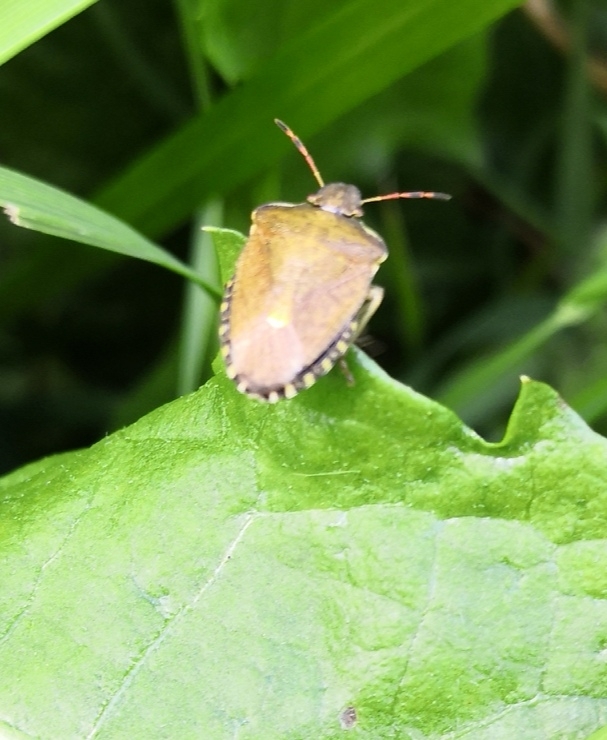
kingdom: Animalia
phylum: Arthropoda
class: Insecta
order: Hemiptera
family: Pentatomidae
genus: Holcostethus
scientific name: Holcostethus strictus
